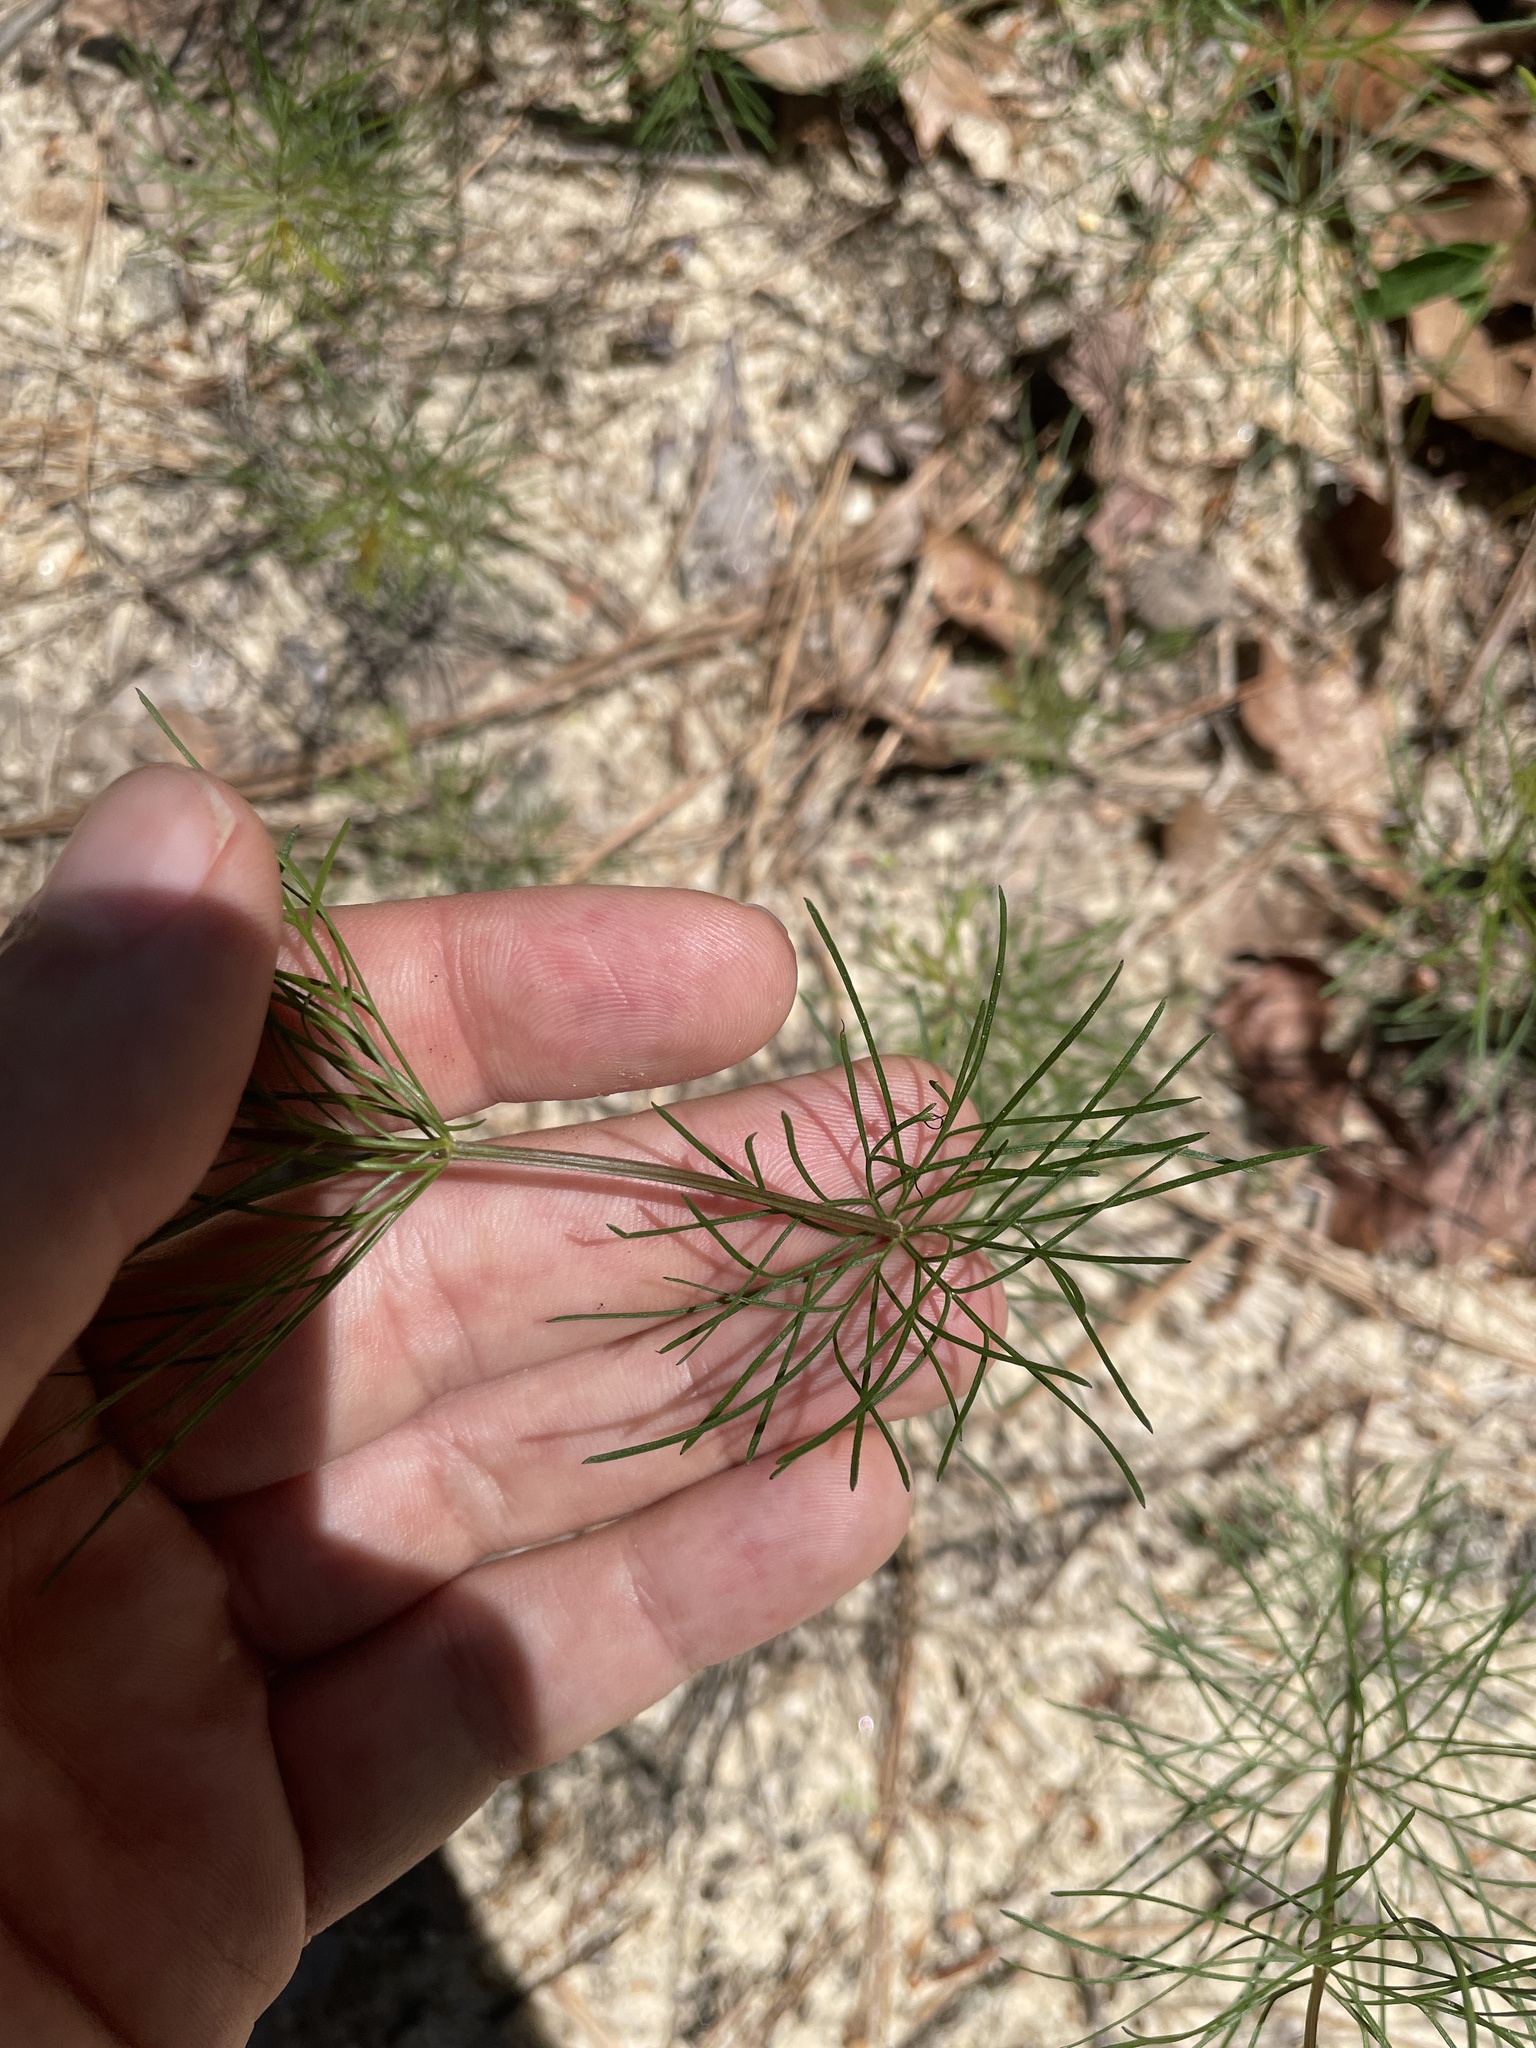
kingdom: Plantae
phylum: Tracheophyta
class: Magnoliopsida
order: Asterales
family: Asteraceae
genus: Coreopsis
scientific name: Coreopsis verticillata
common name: Whorled tickseed
